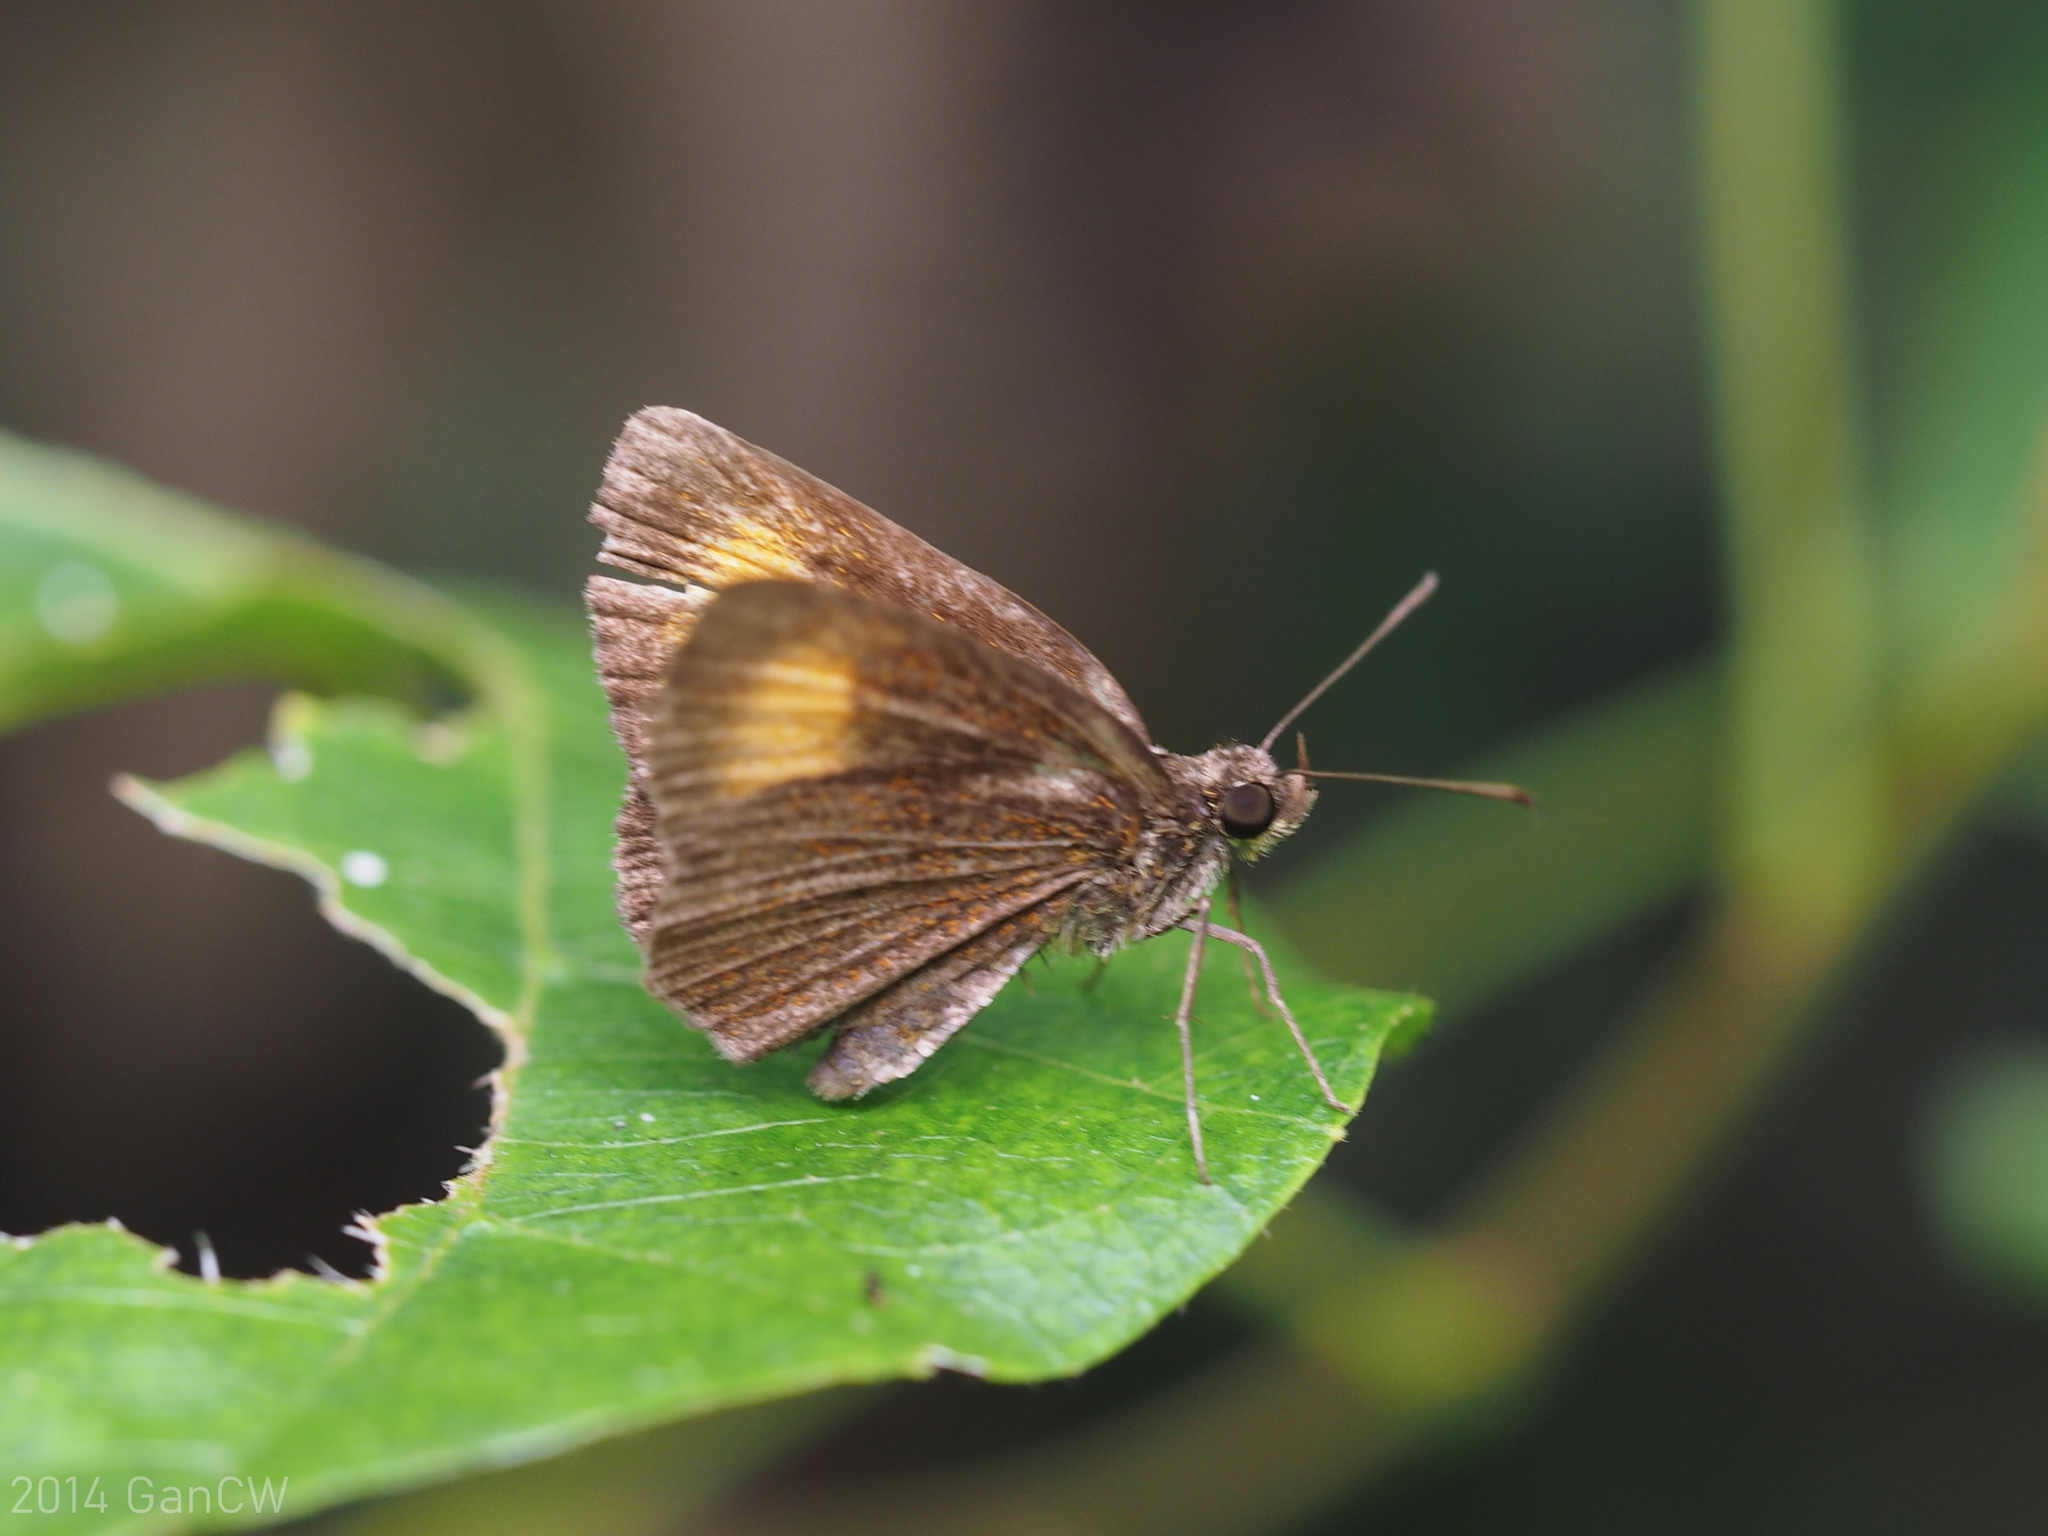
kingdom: Animalia
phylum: Arthropoda
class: Insecta
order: Lepidoptera
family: Hesperiidae
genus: Iambrix
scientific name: Iambrix Idmon obliquans
